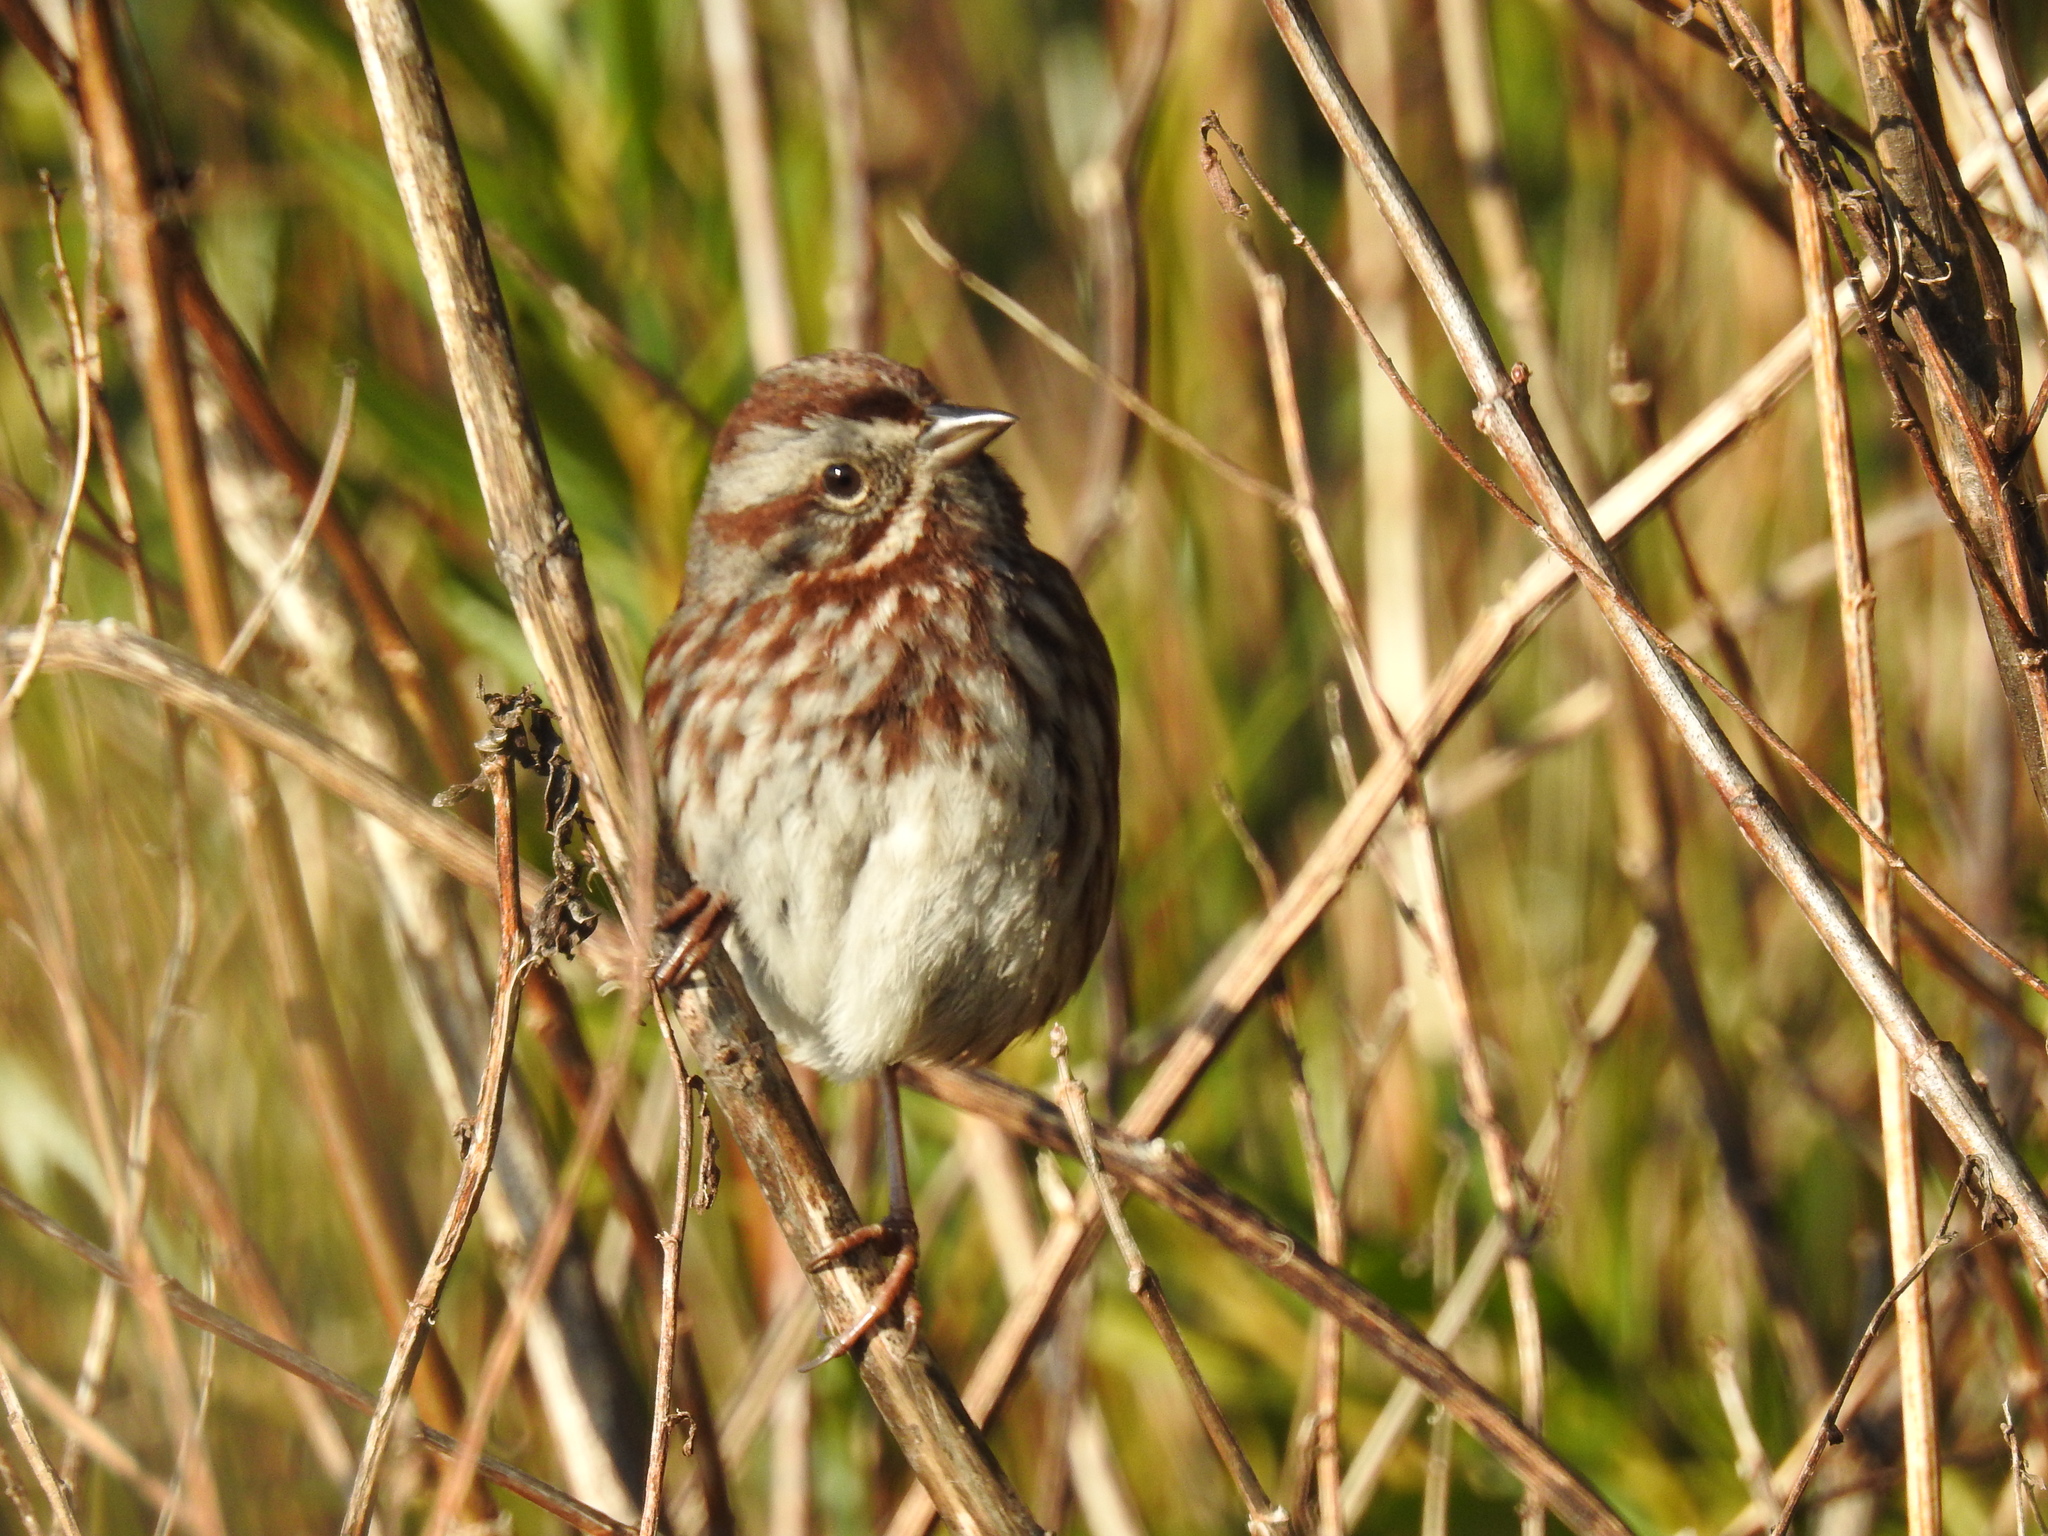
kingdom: Animalia
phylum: Chordata
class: Aves
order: Passeriformes
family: Passerellidae
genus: Melospiza
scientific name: Melospiza melodia
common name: Song sparrow
